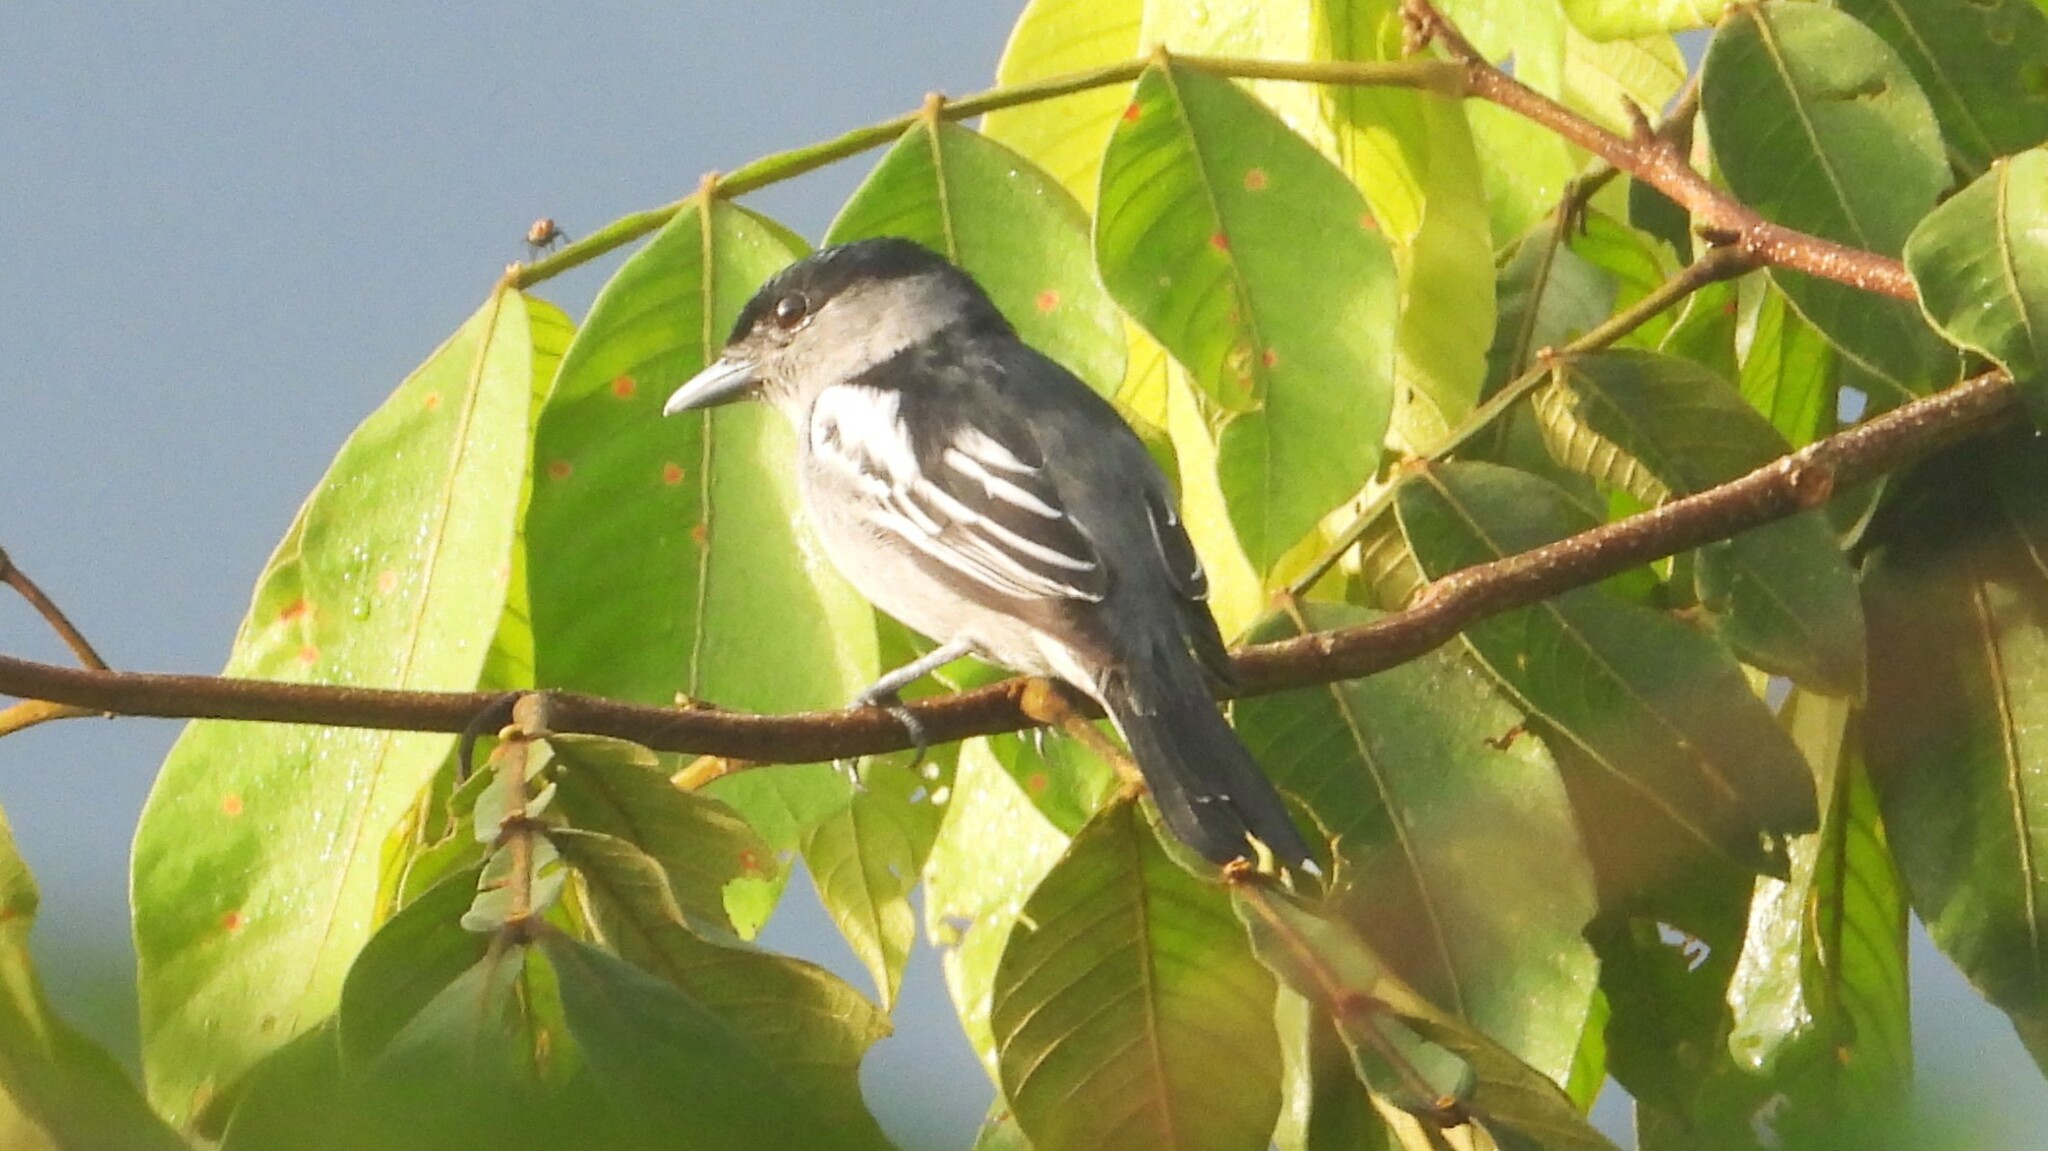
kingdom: Animalia
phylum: Chordata
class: Aves
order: Passeriformes
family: Cotingidae
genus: Pachyramphus
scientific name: Pachyramphus polychopterus
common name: White-winged becard
